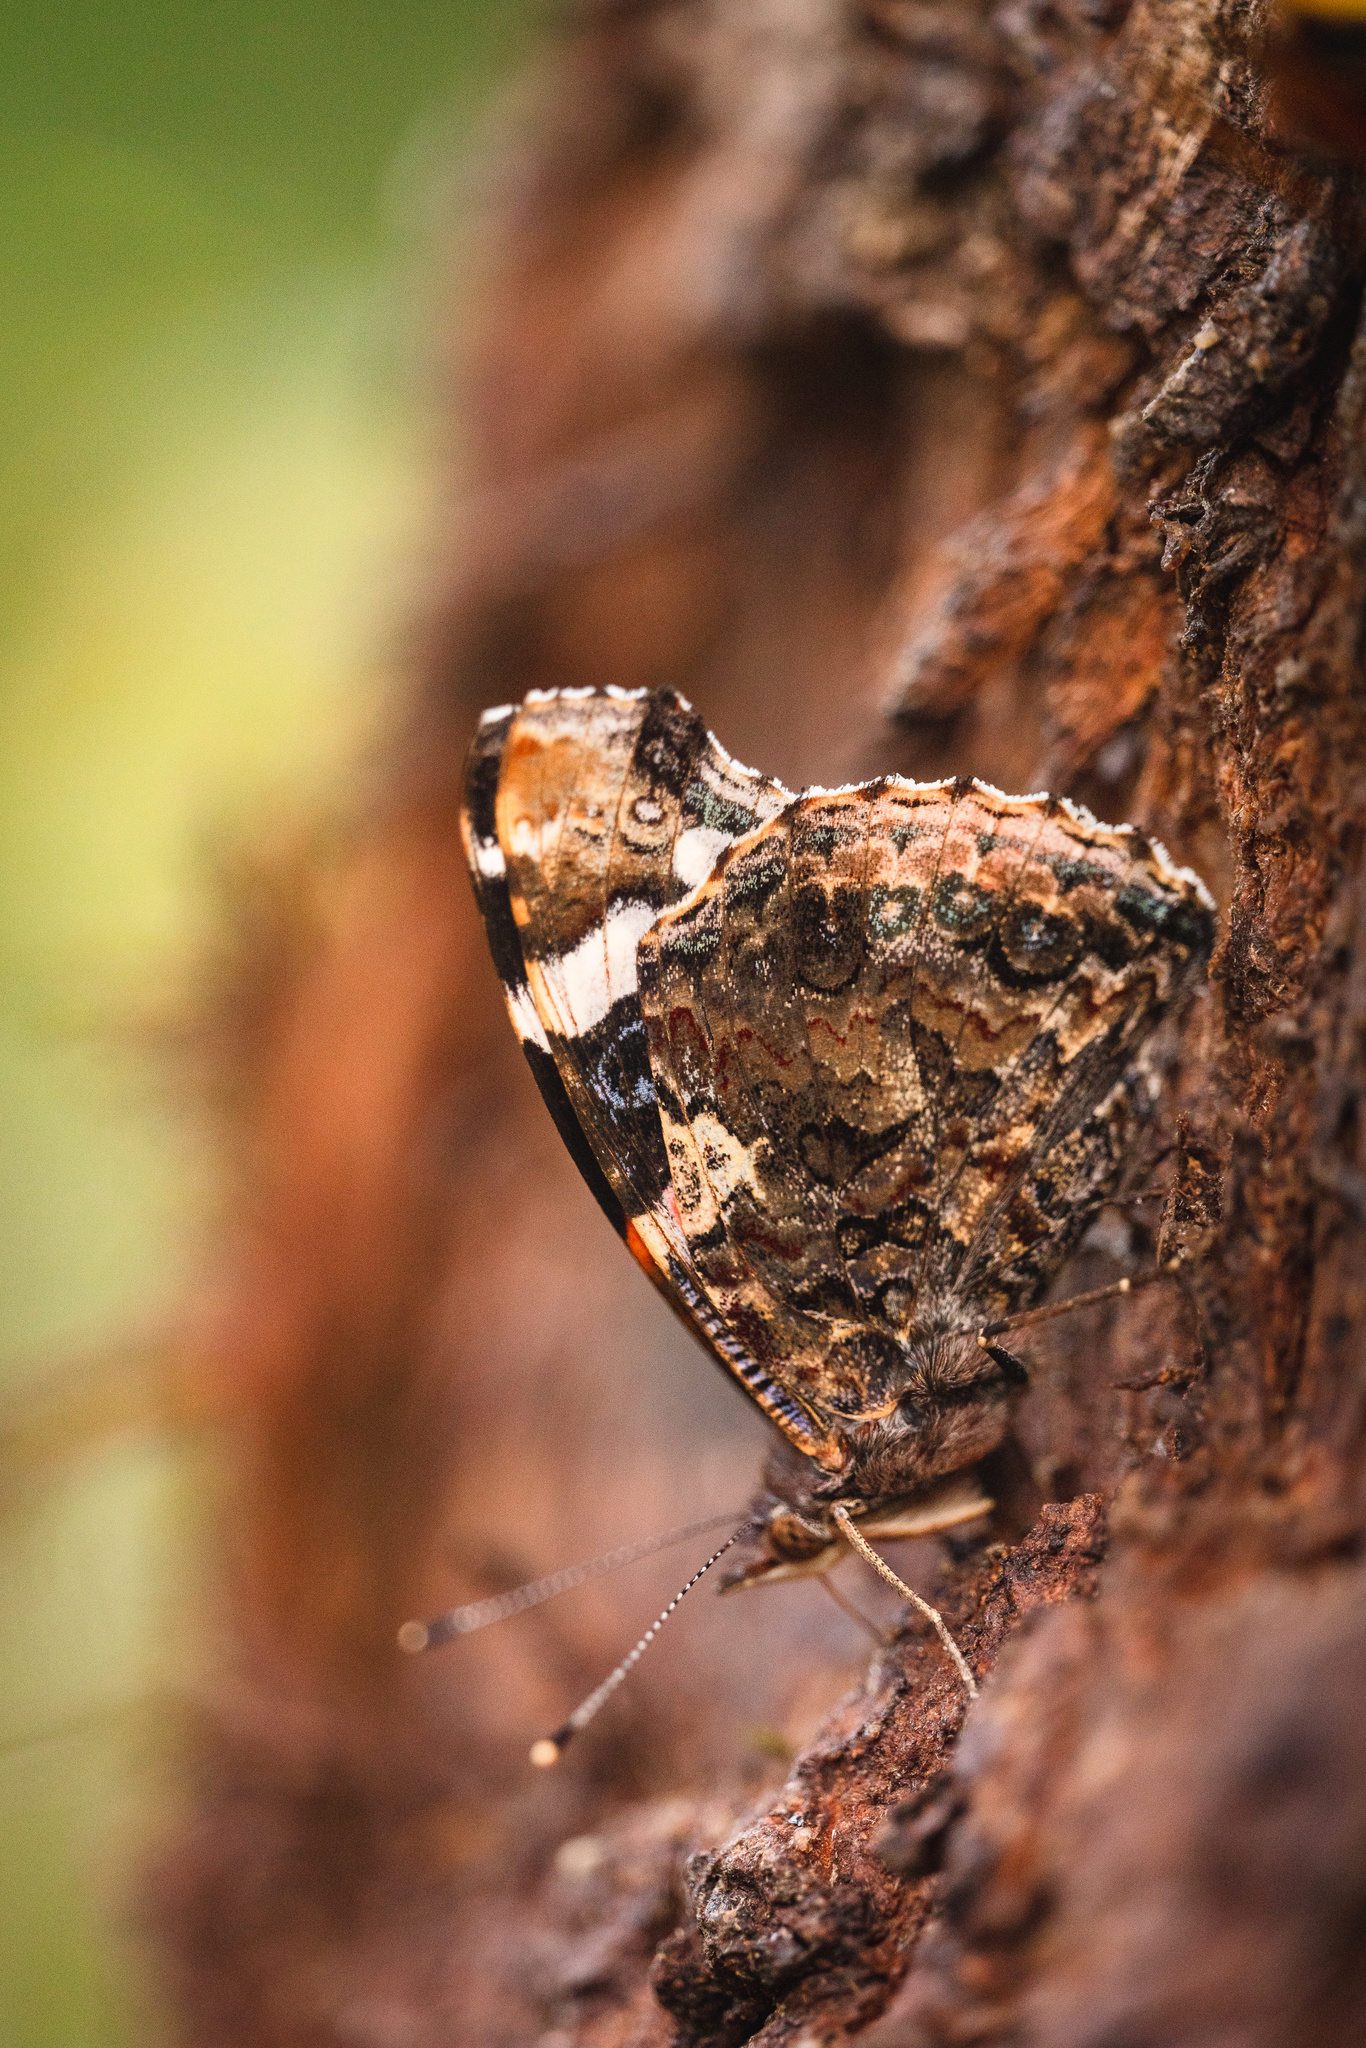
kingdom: Animalia
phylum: Arthropoda
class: Insecta
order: Lepidoptera
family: Nymphalidae
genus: Vanessa
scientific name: Vanessa atalanta
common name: Red admiral
